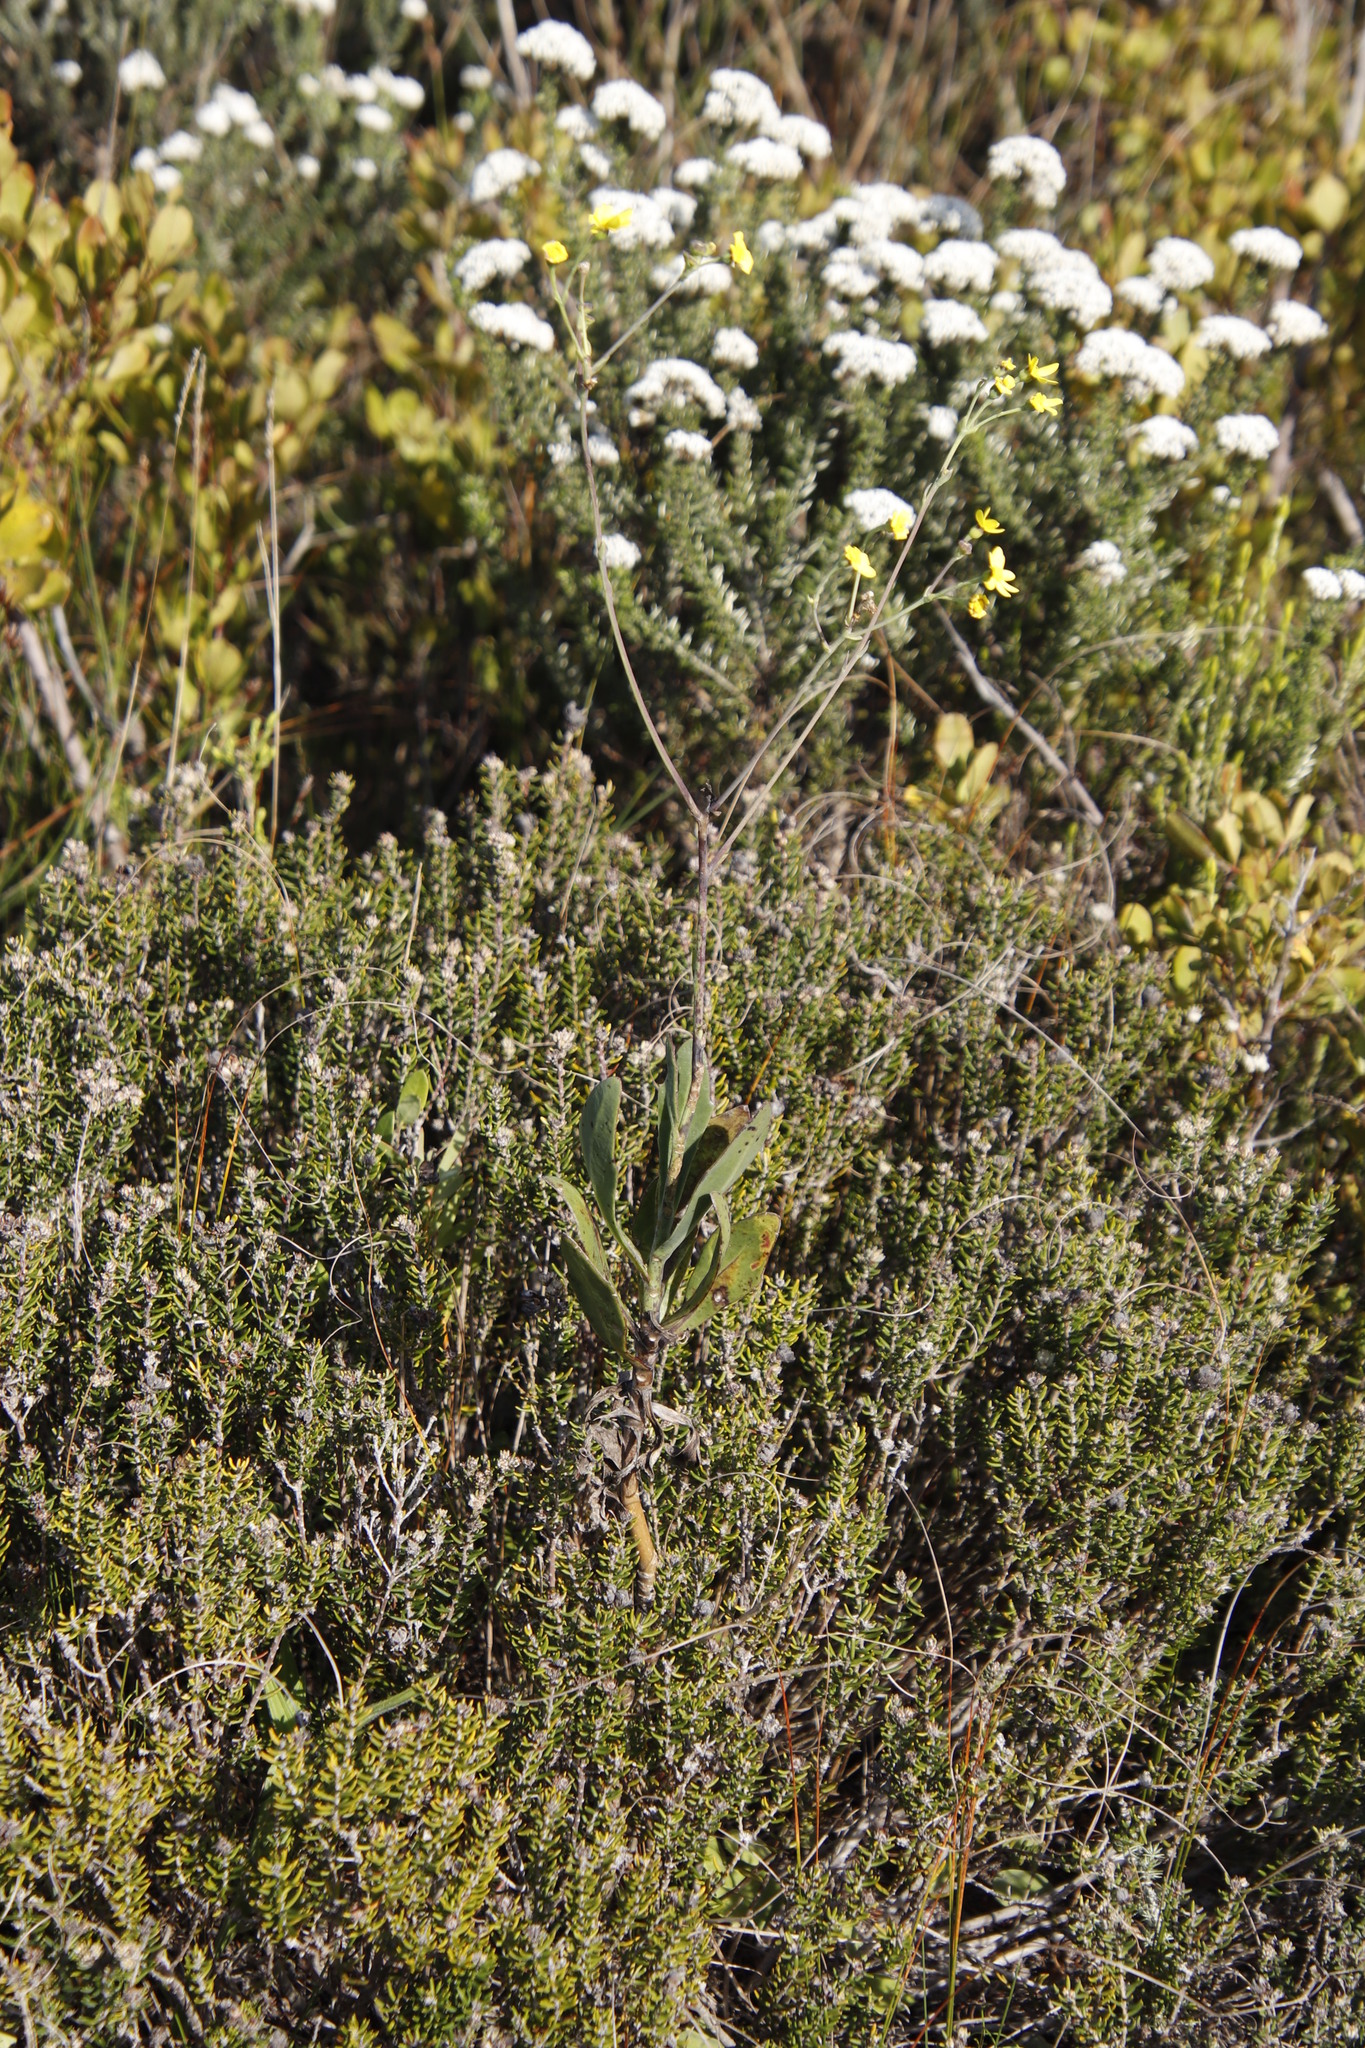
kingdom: Plantae
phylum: Tracheophyta
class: Magnoliopsida
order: Asterales
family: Asteraceae
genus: Othonna
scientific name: Othonna quinquedentata
